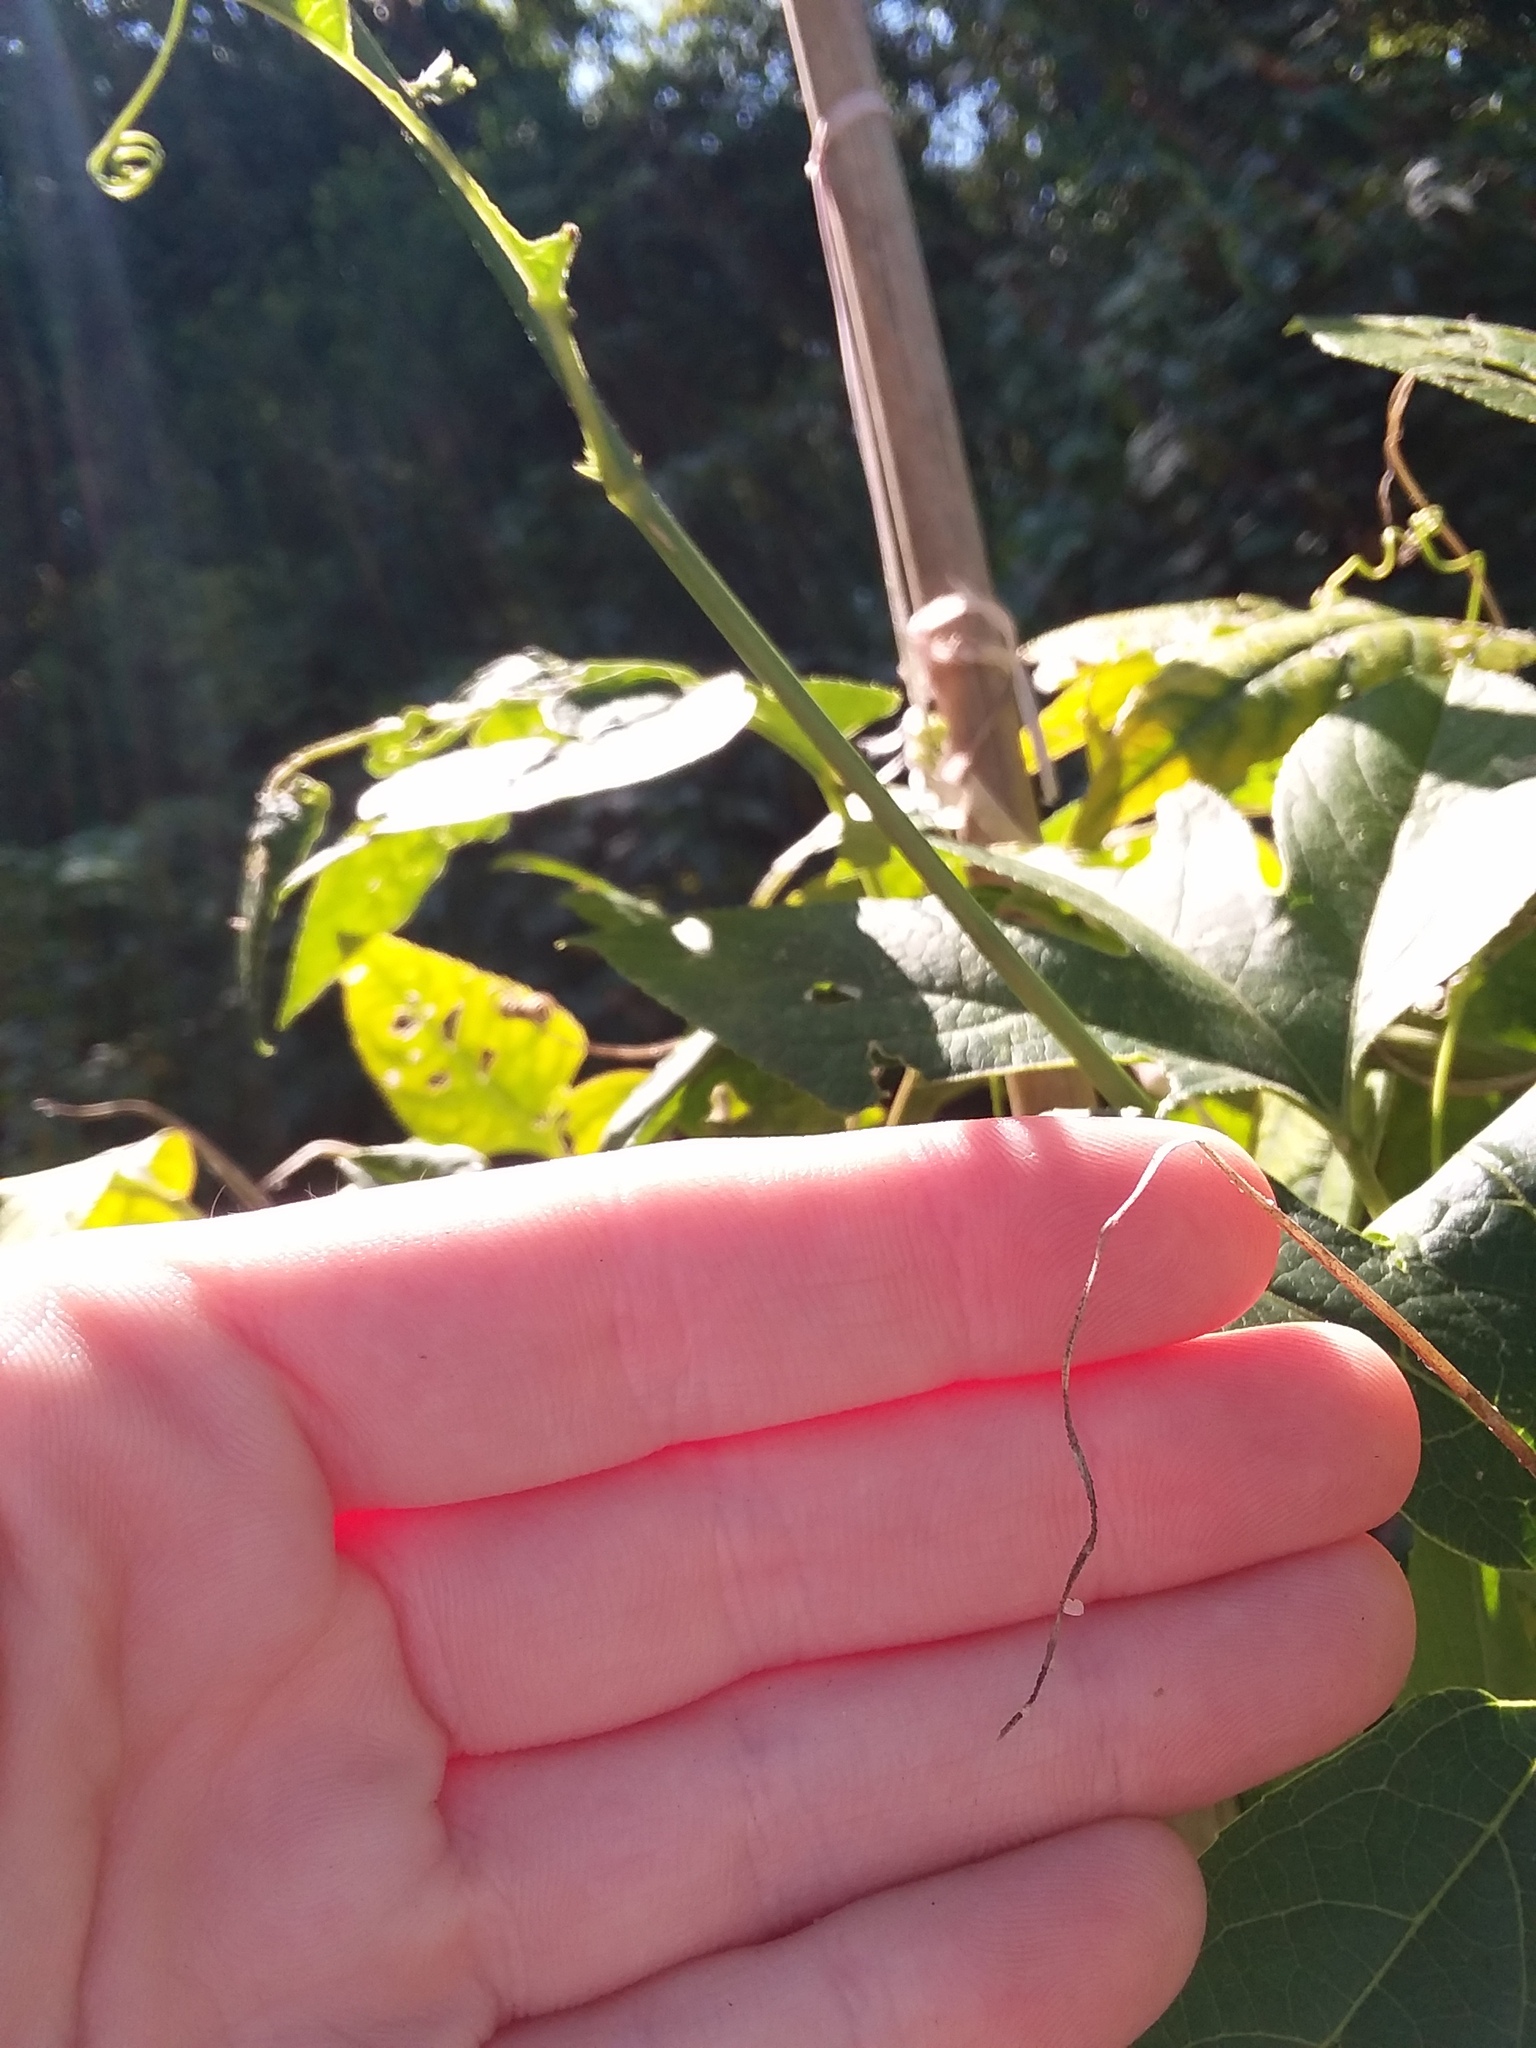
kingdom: Animalia
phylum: Arthropoda
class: Insecta
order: Lepidoptera
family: Nymphalidae
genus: Dione
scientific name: Dione vanillae
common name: Gulf fritillary
